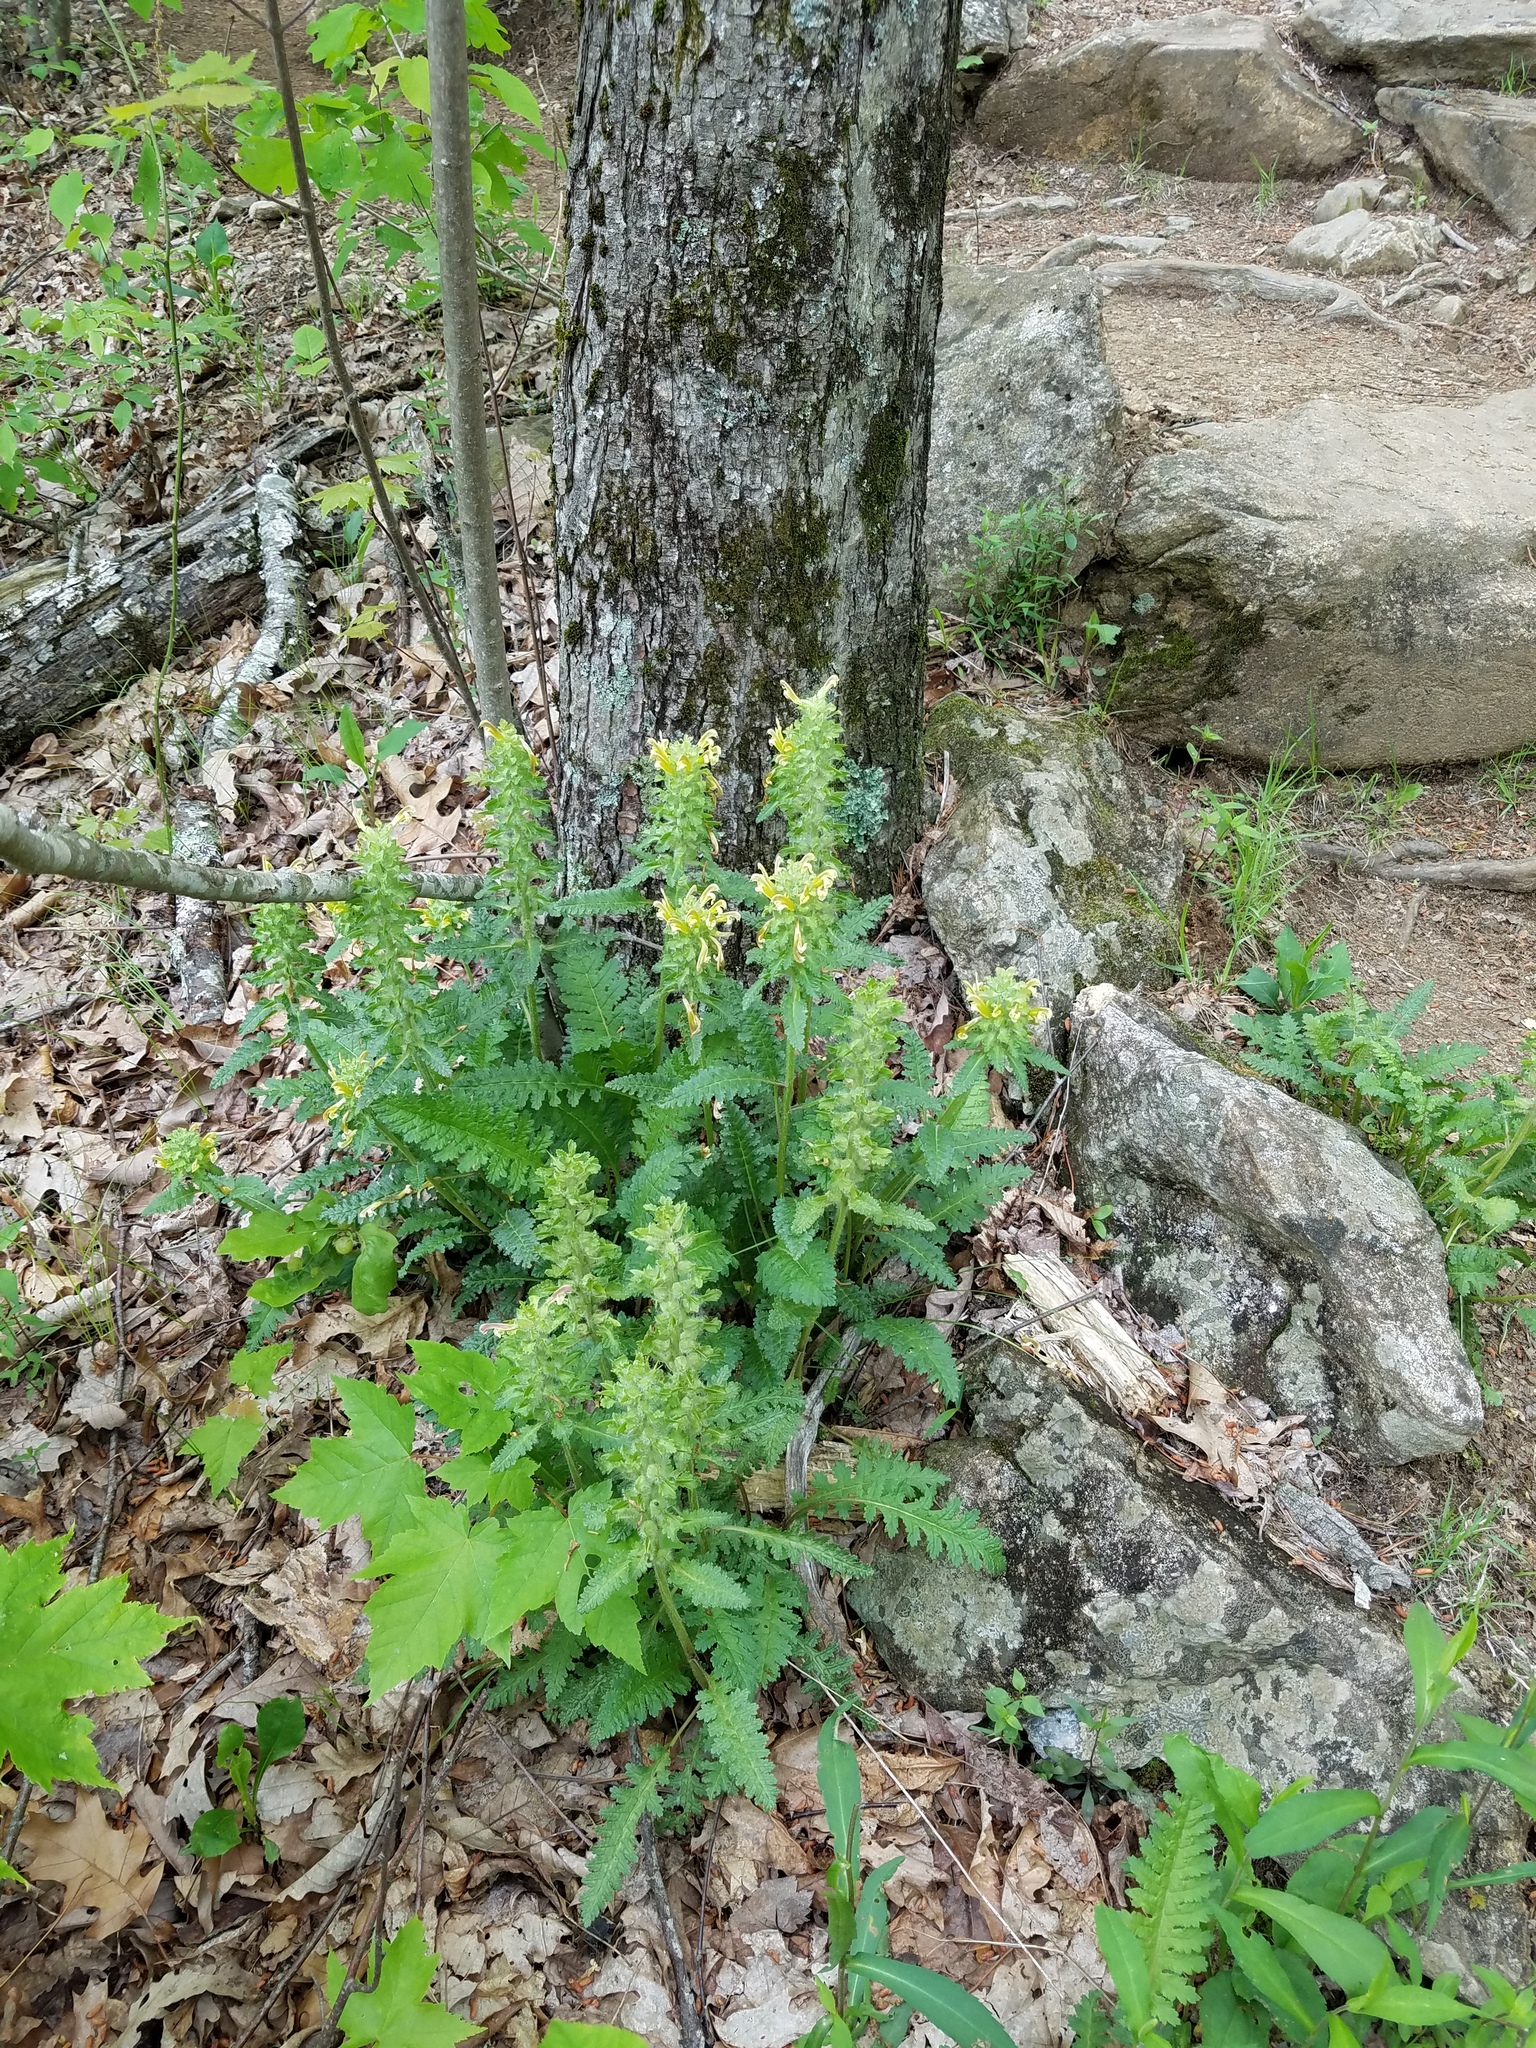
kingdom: Plantae
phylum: Tracheophyta
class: Magnoliopsida
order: Lamiales
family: Orobanchaceae
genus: Pedicularis
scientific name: Pedicularis canadensis
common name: Early lousewort
